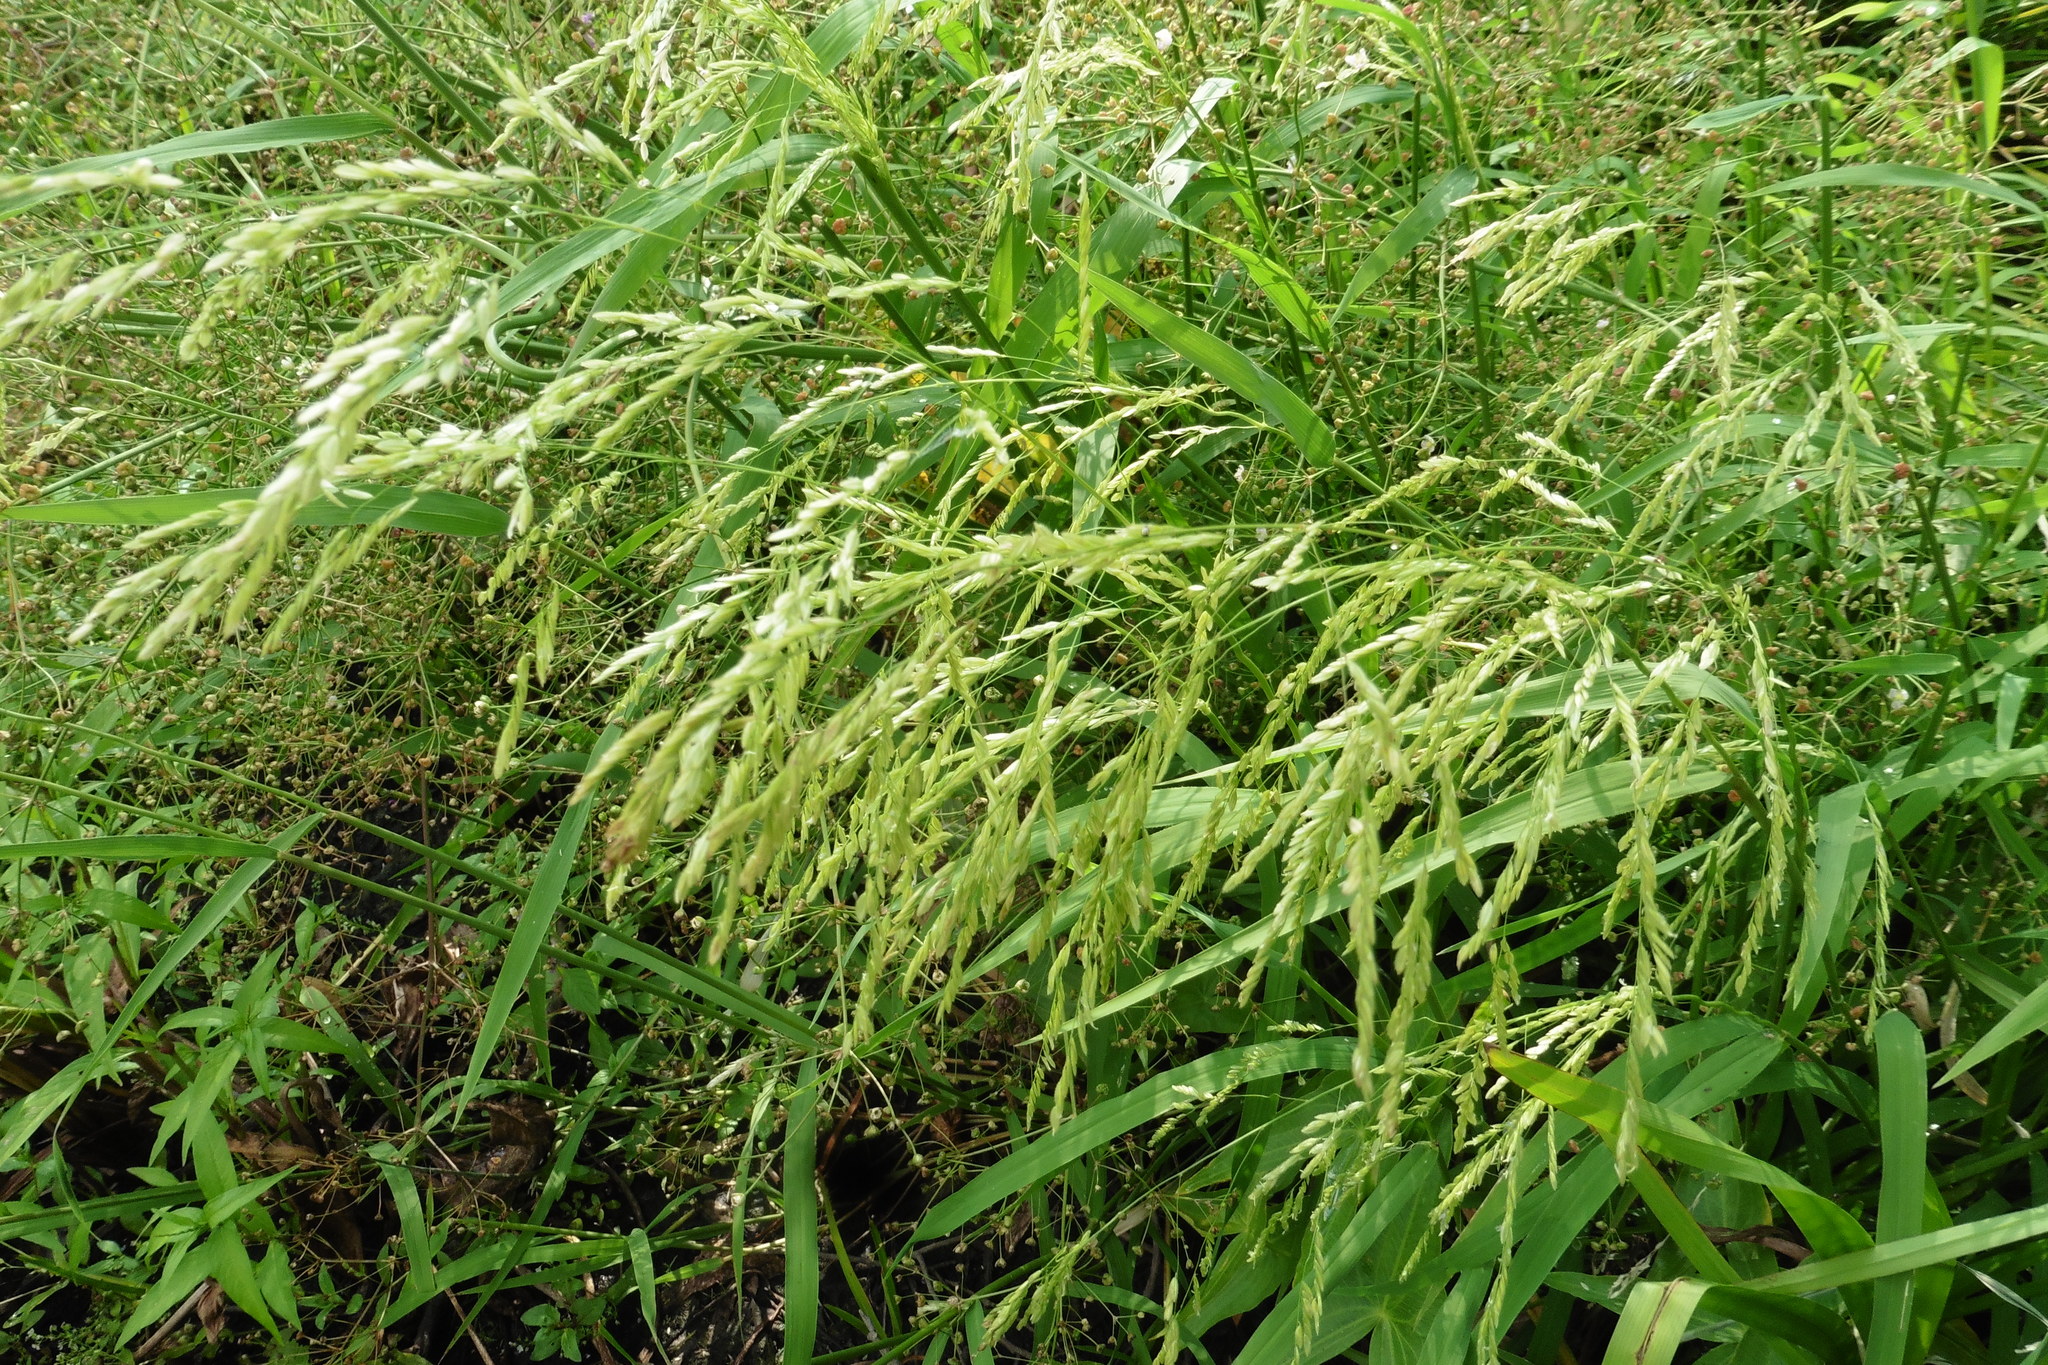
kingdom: Plantae
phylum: Tracheophyta
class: Liliopsida
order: Poales
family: Poaceae
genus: Leersia
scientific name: Leersia oryzoides
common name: Cut-grass
